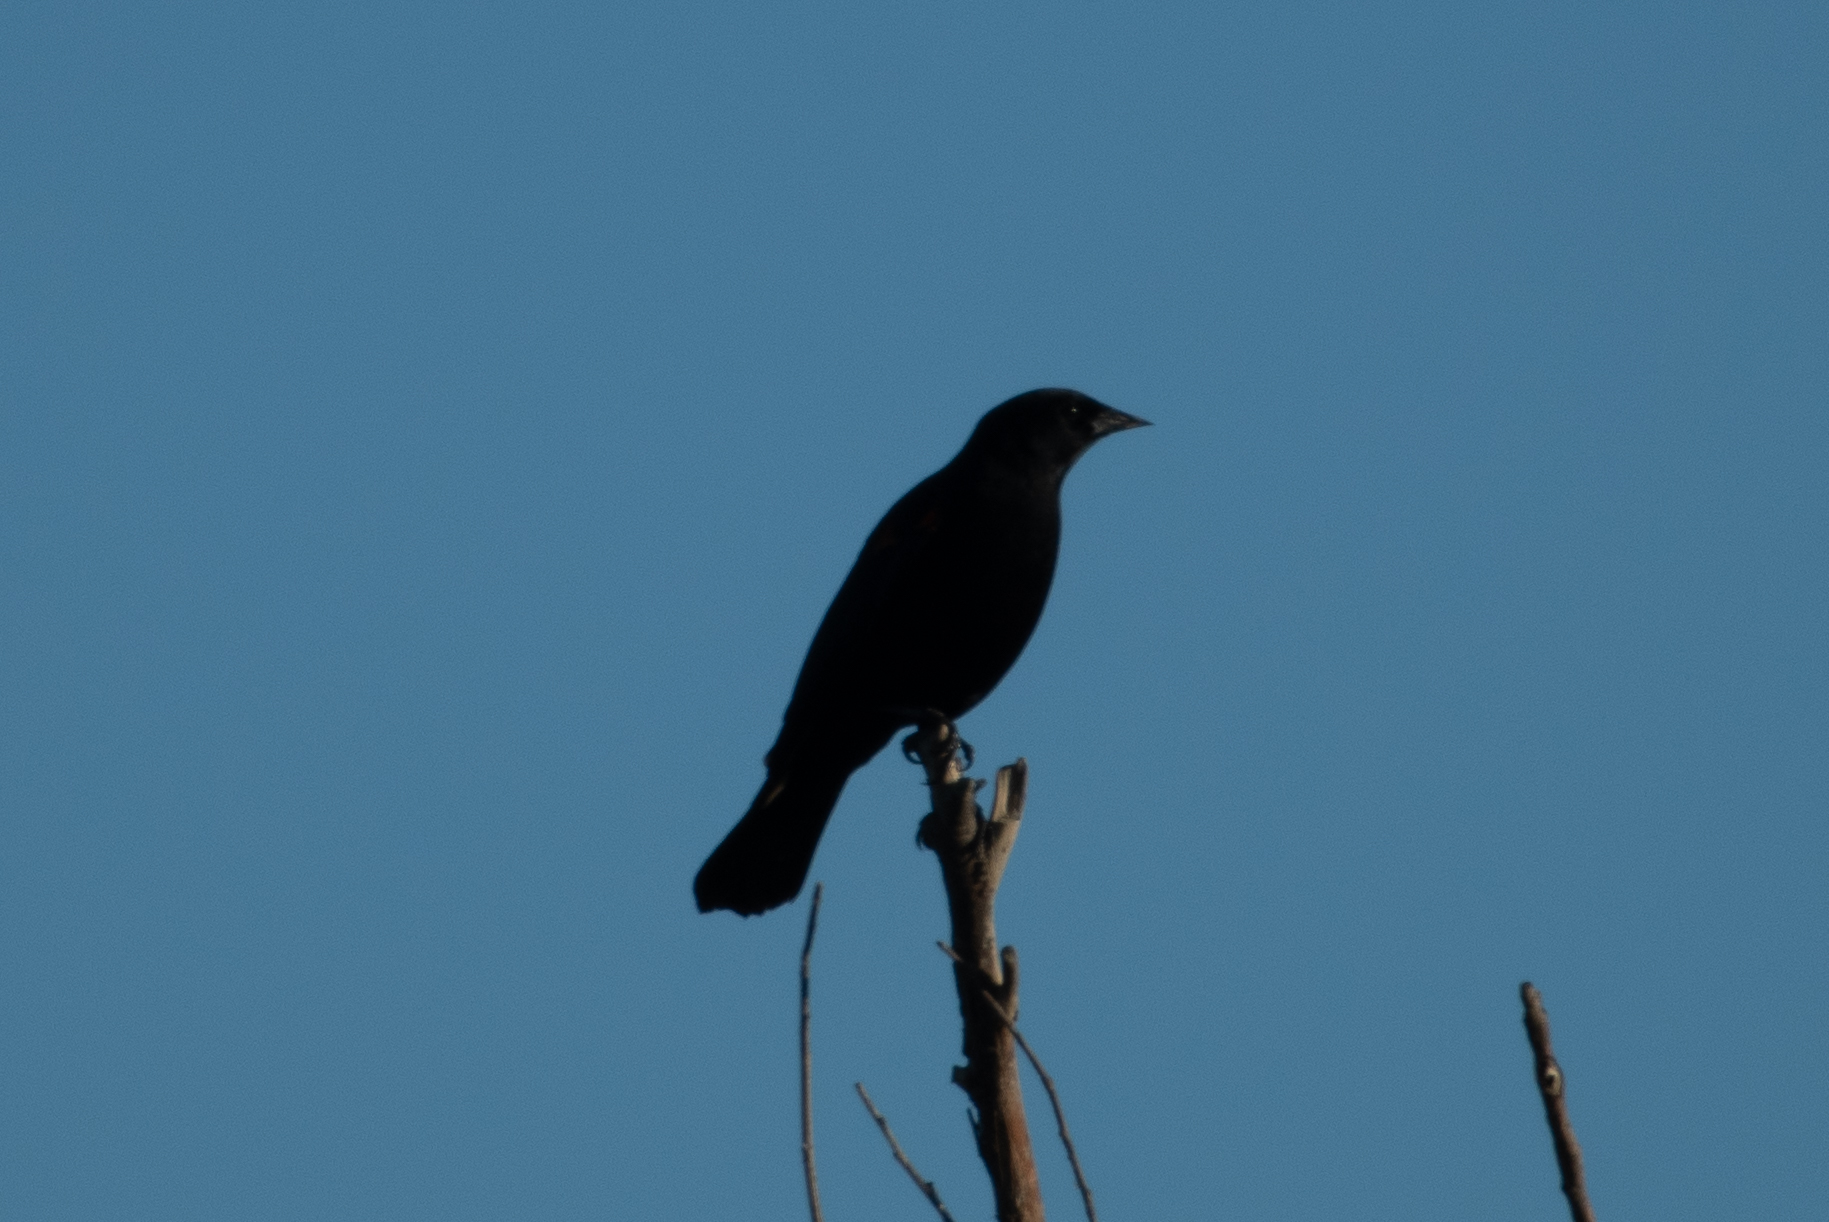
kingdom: Animalia
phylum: Chordata
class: Aves
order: Passeriformes
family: Icteridae
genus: Agelaius
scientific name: Agelaius phoeniceus
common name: Red-winged blackbird
